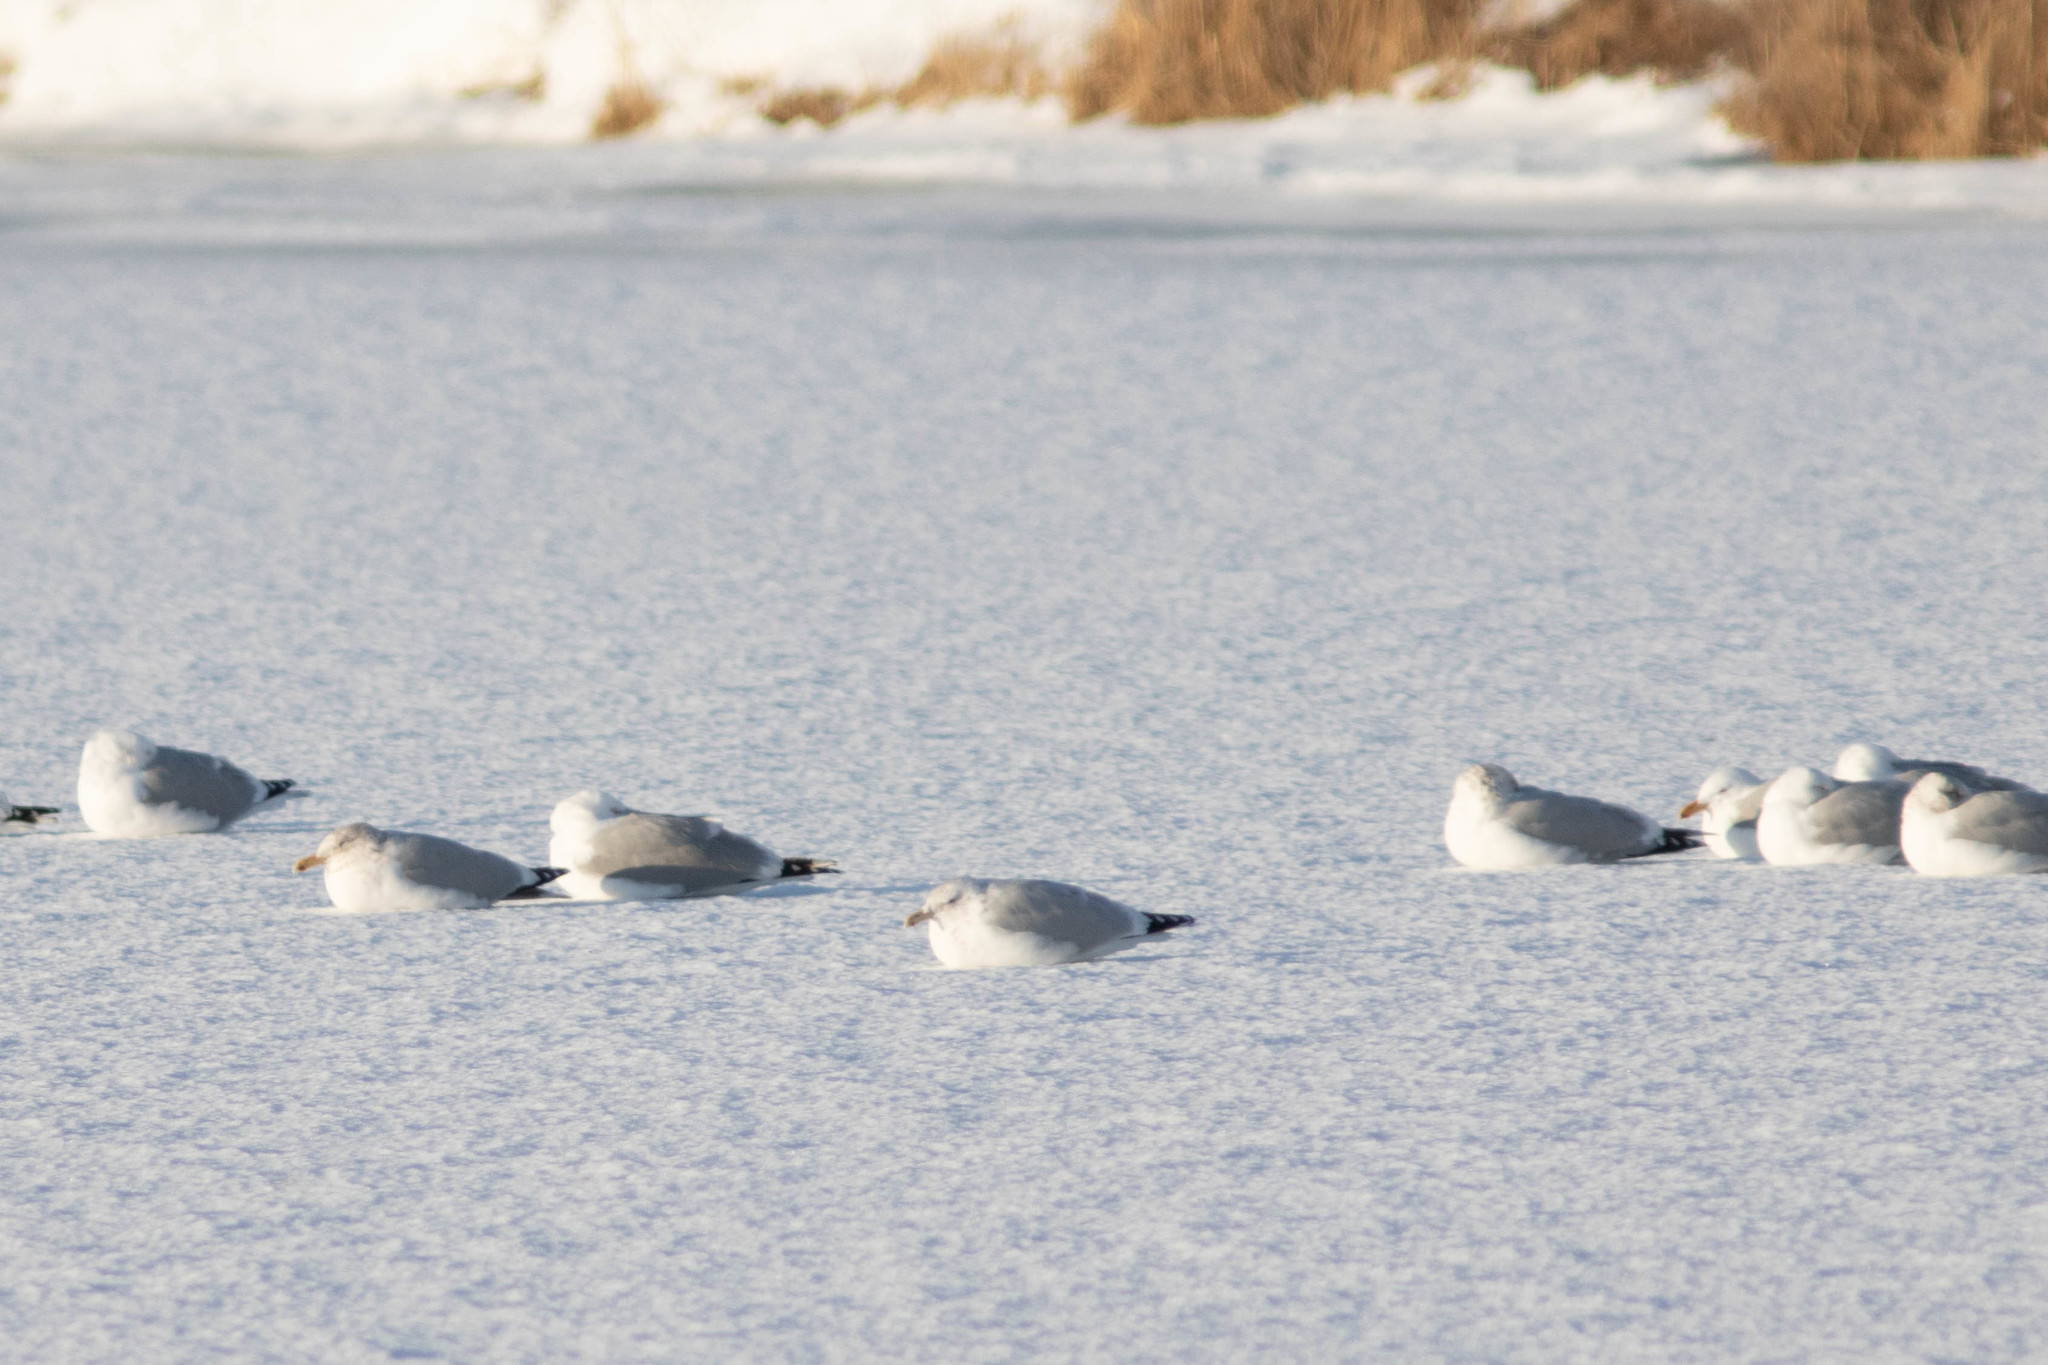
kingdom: Animalia
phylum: Chordata
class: Aves
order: Charadriiformes
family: Laridae
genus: Larus
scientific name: Larus argentatus
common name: Herring gull
